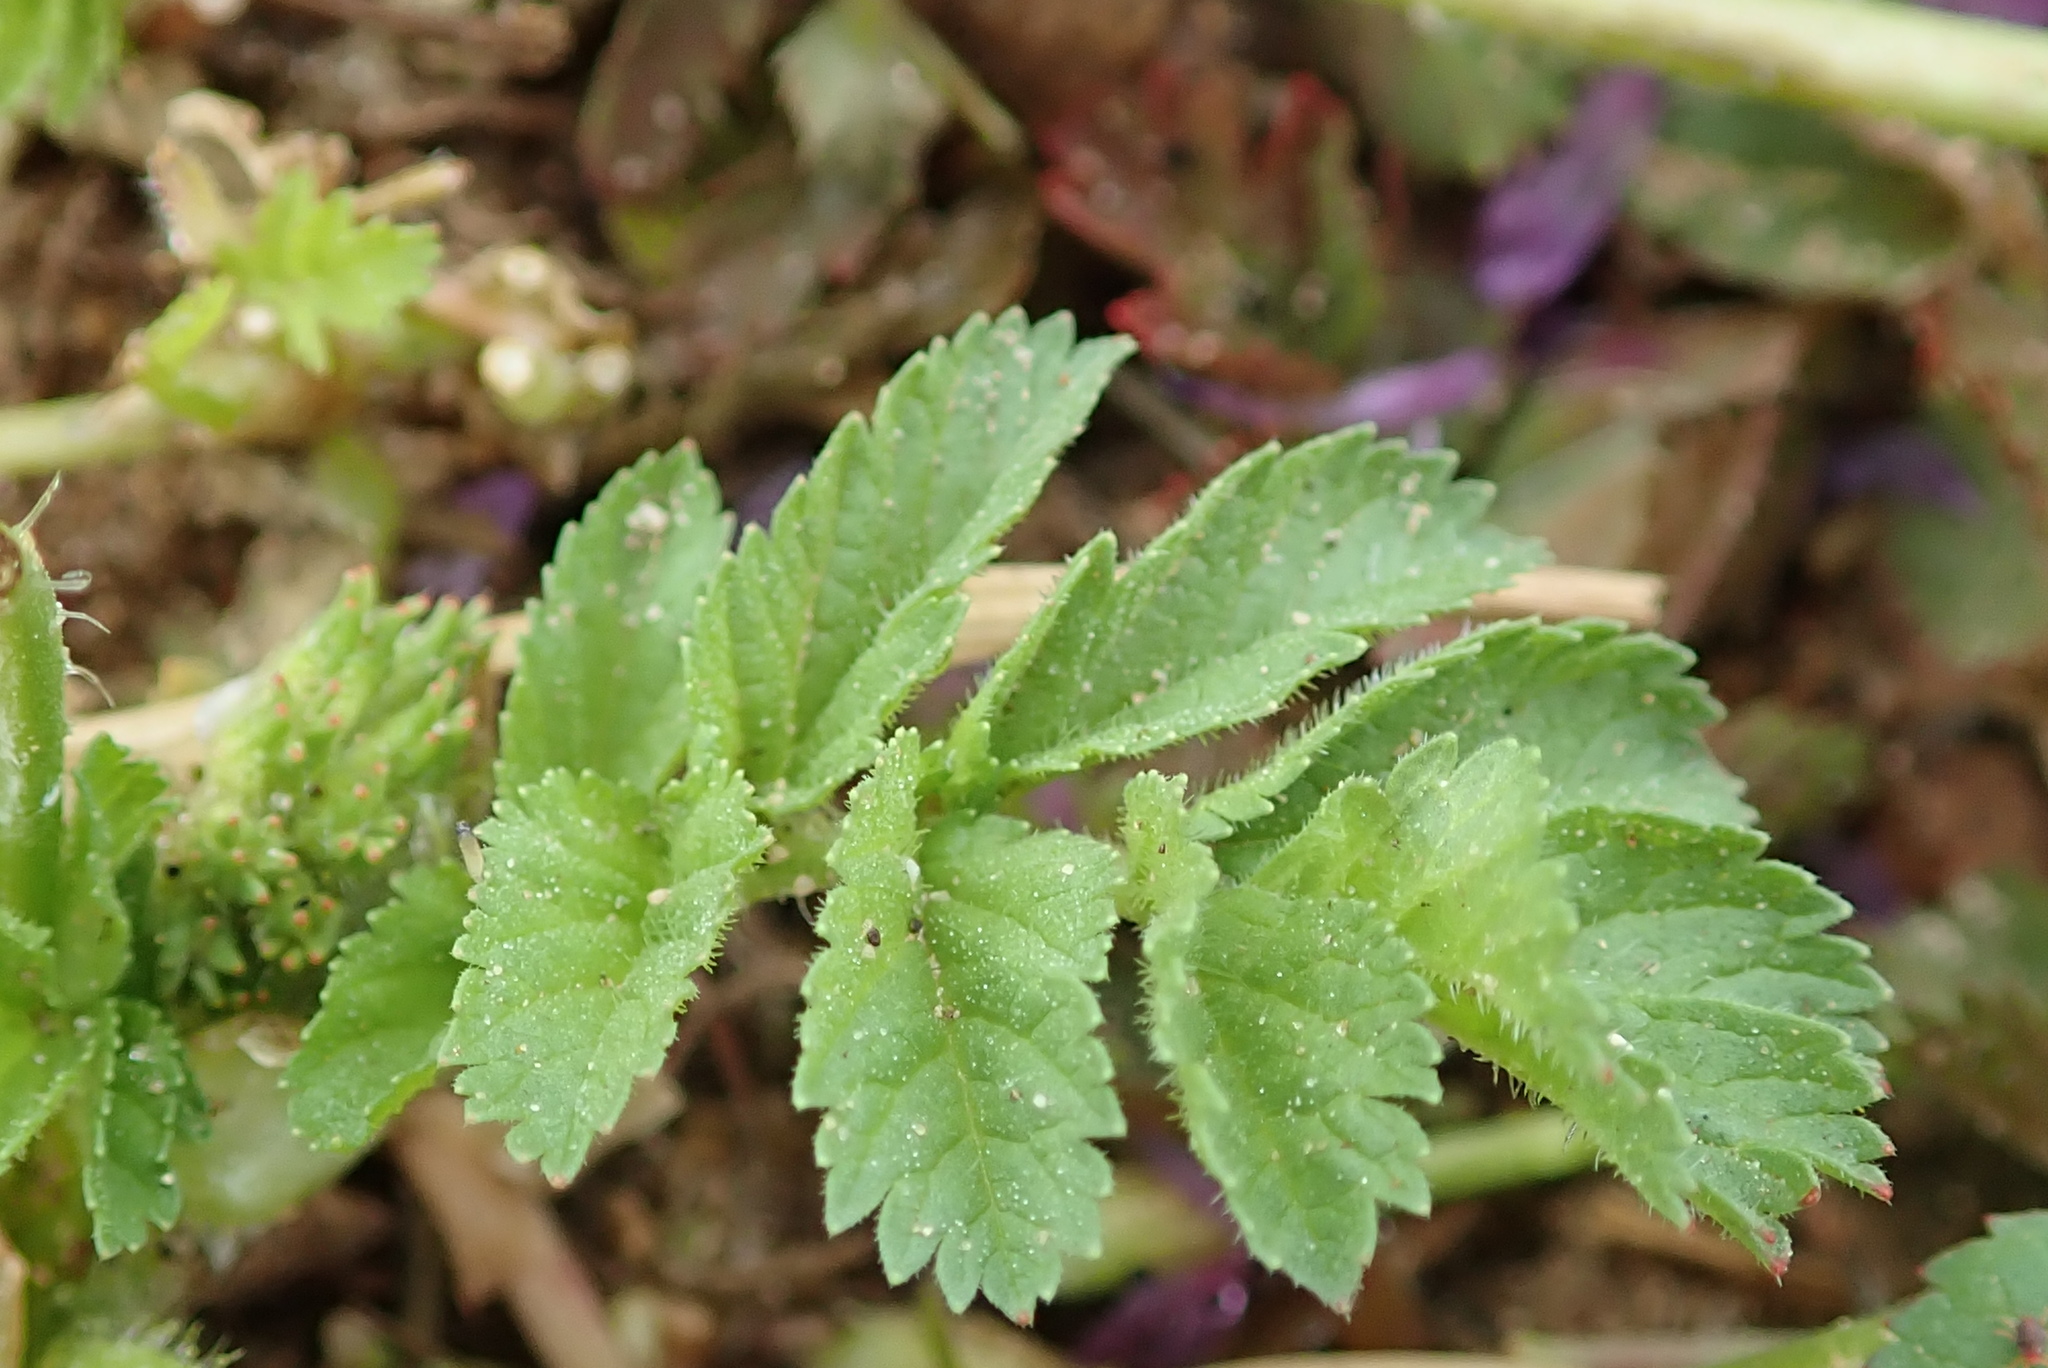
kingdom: Plantae
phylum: Tracheophyta
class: Magnoliopsida
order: Geraniales
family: Geraniaceae
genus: Erodium
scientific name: Erodium moschatum
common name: Musk stork's-bill
